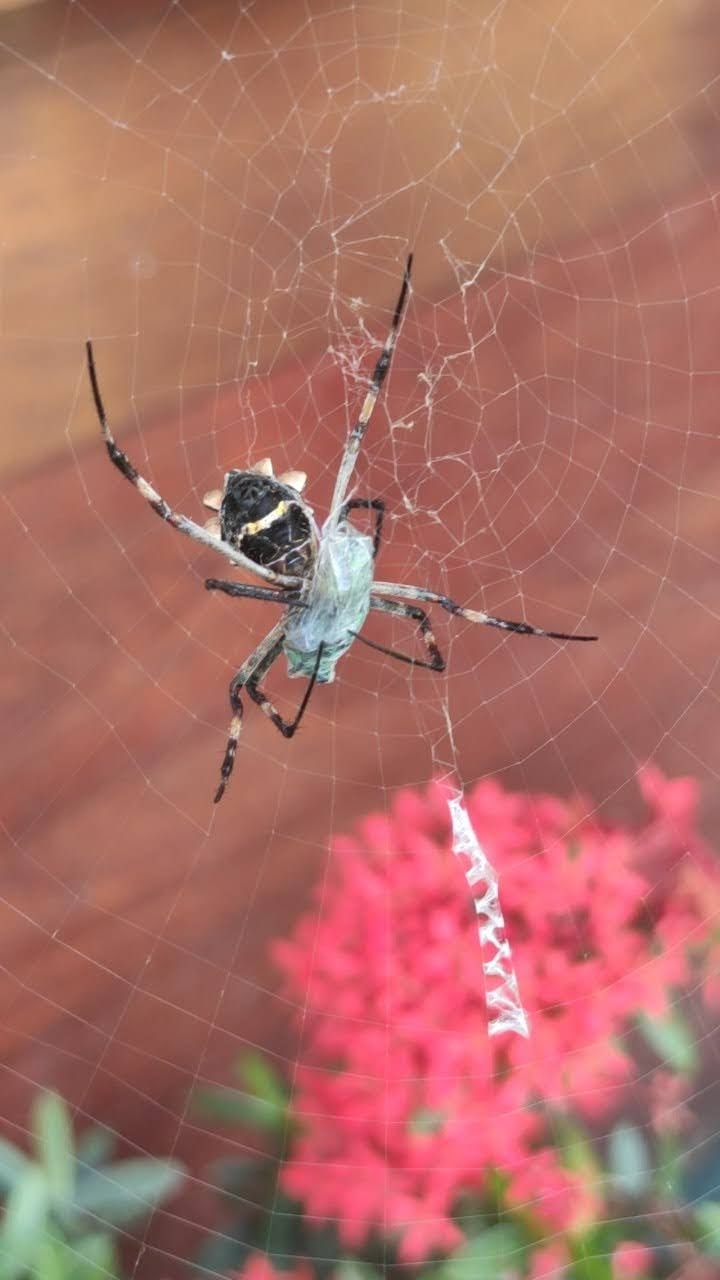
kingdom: Animalia
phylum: Arthropoda
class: Arachnida
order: Araneae
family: Araneidae
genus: Argiope
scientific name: Argiope argentata
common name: Orb weavers
